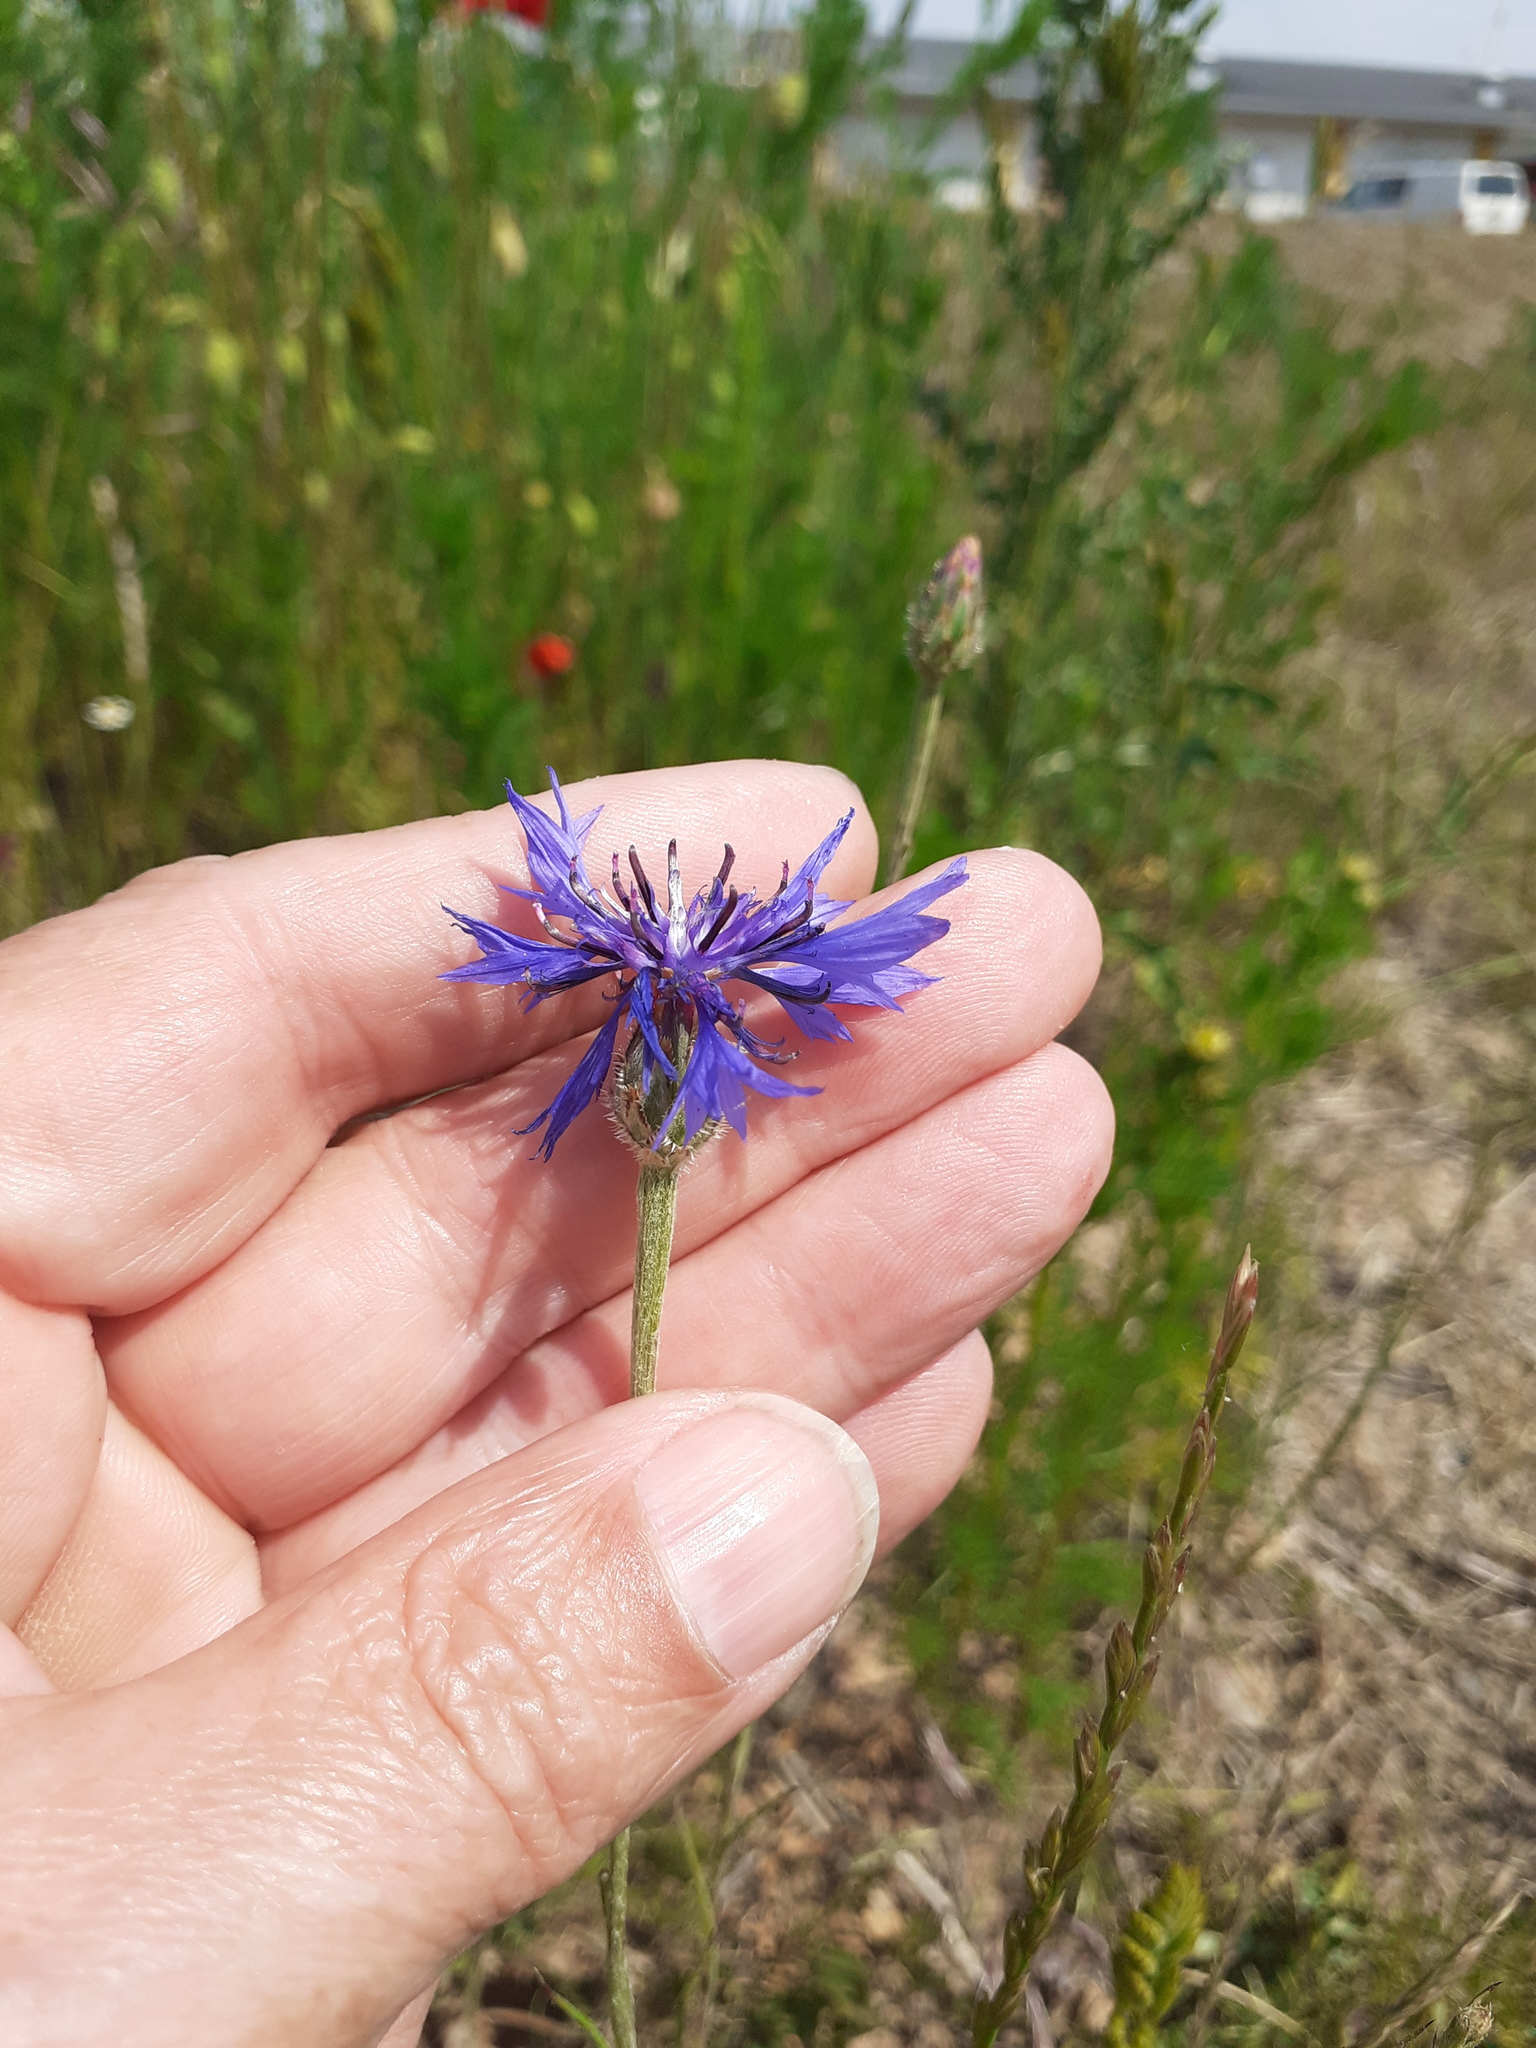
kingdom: Plantae
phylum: Tracheophyta
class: Magnoliopsida
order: Asterales
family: Asteraceae
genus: Centaurea
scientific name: Centaurea cyanus
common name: Cornflower
